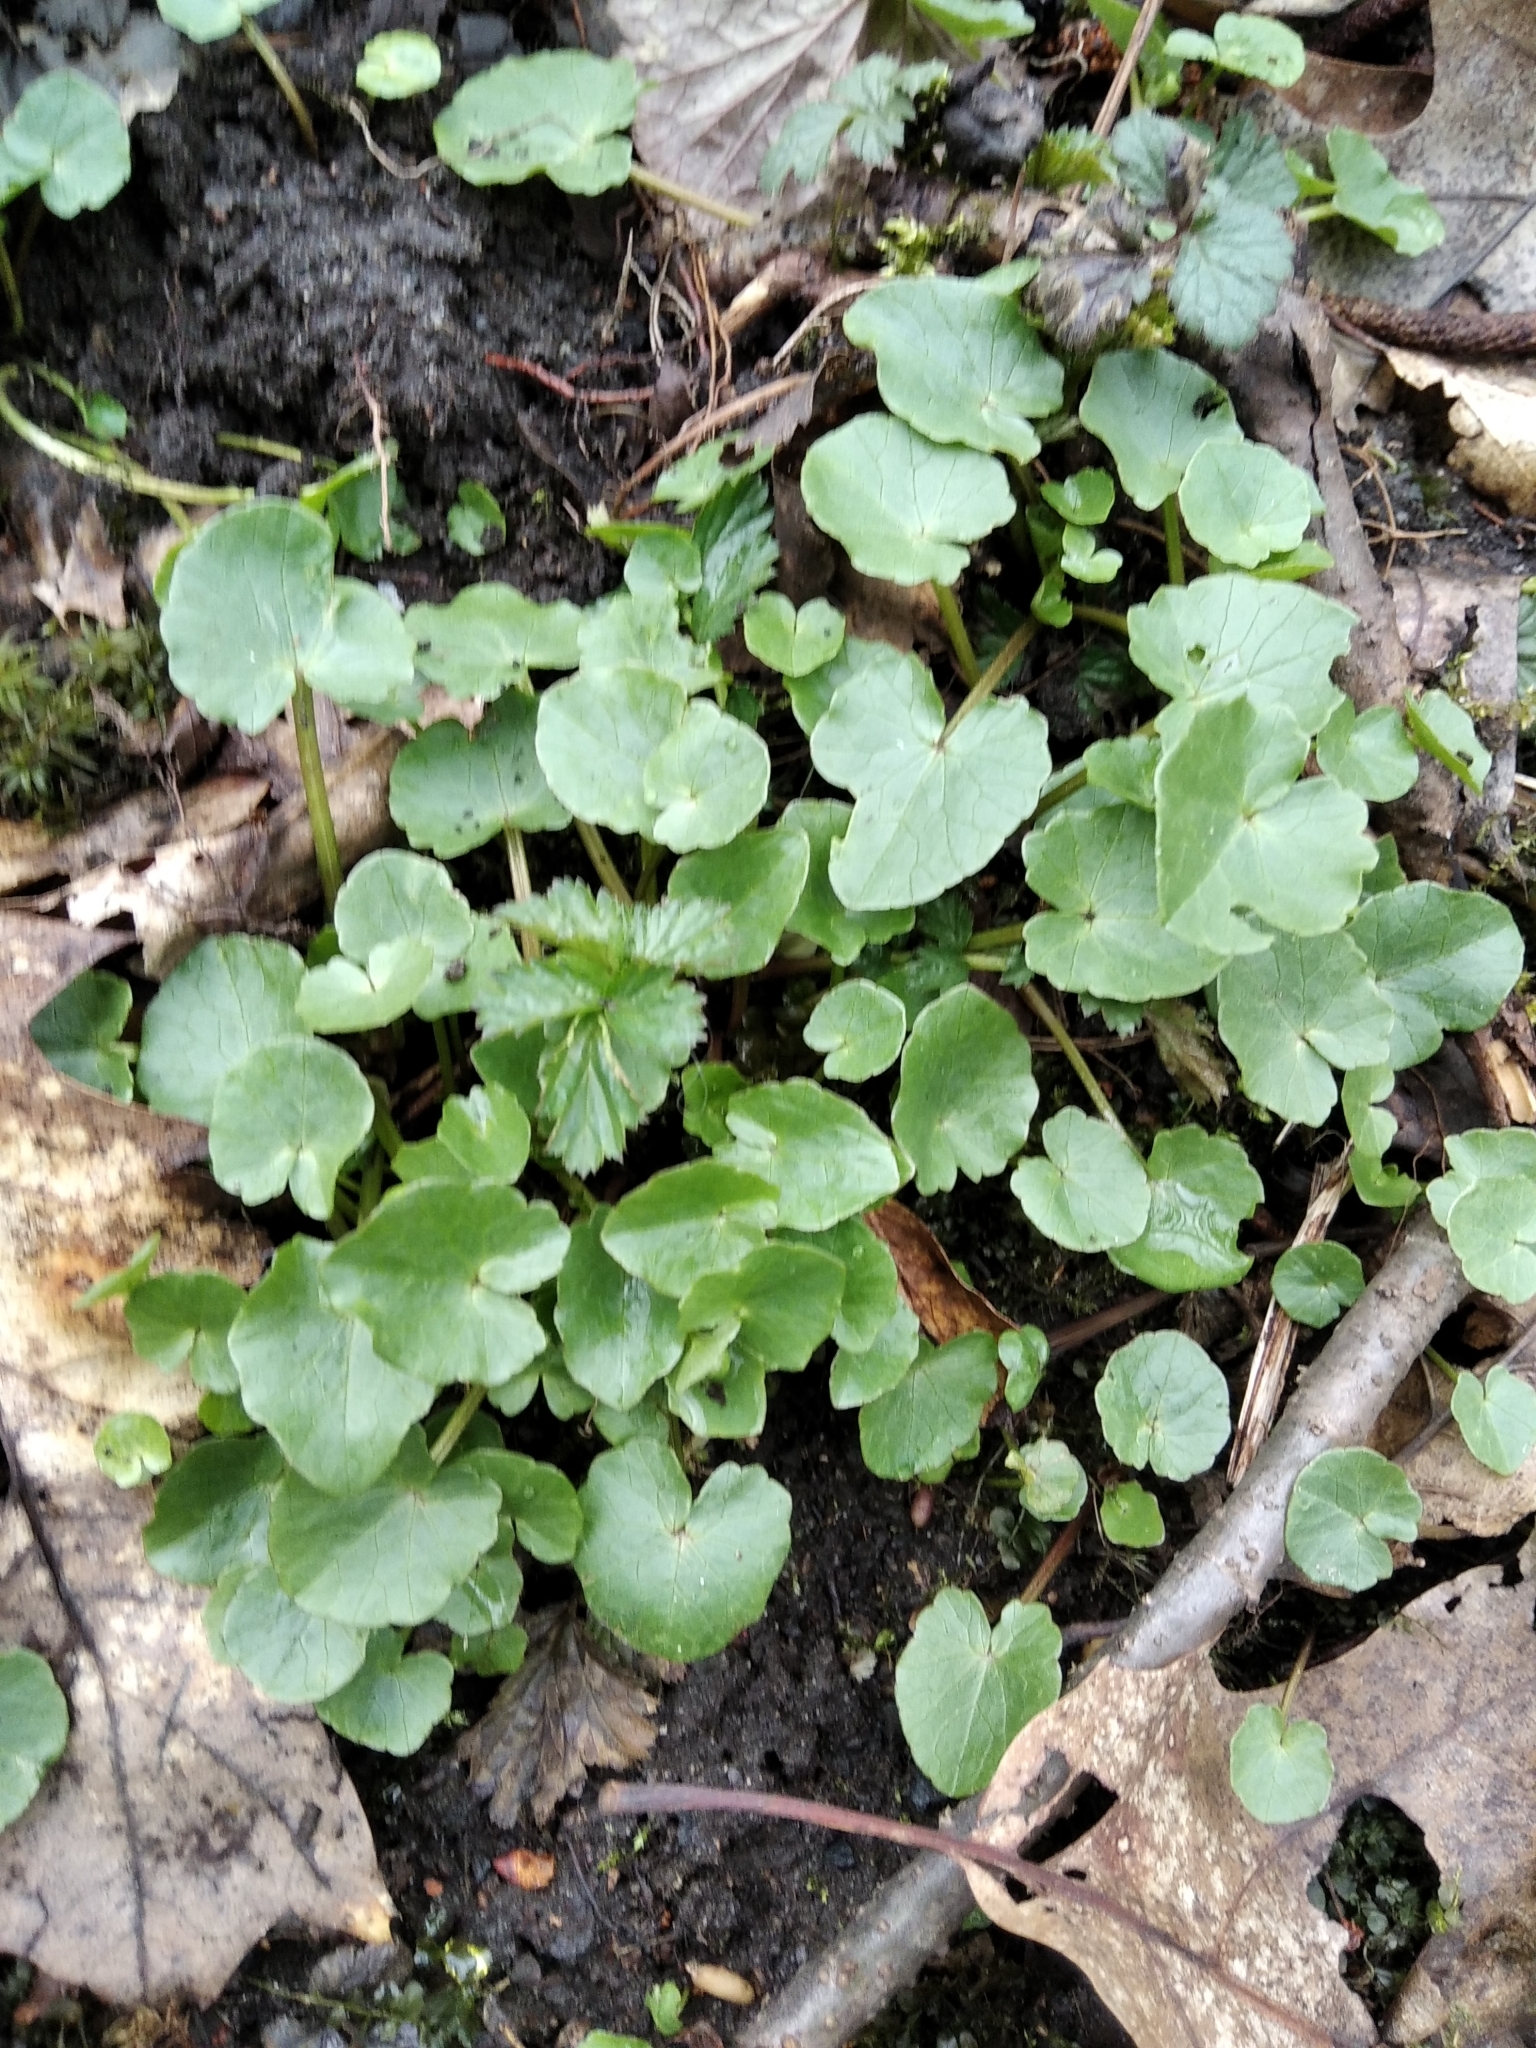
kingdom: Plantae
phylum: Tracheophyta
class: Magnoliopsida
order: Ranunculales
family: Ranunculaceae
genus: Ficaria
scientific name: Ficaria verna
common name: Lesser celandine
